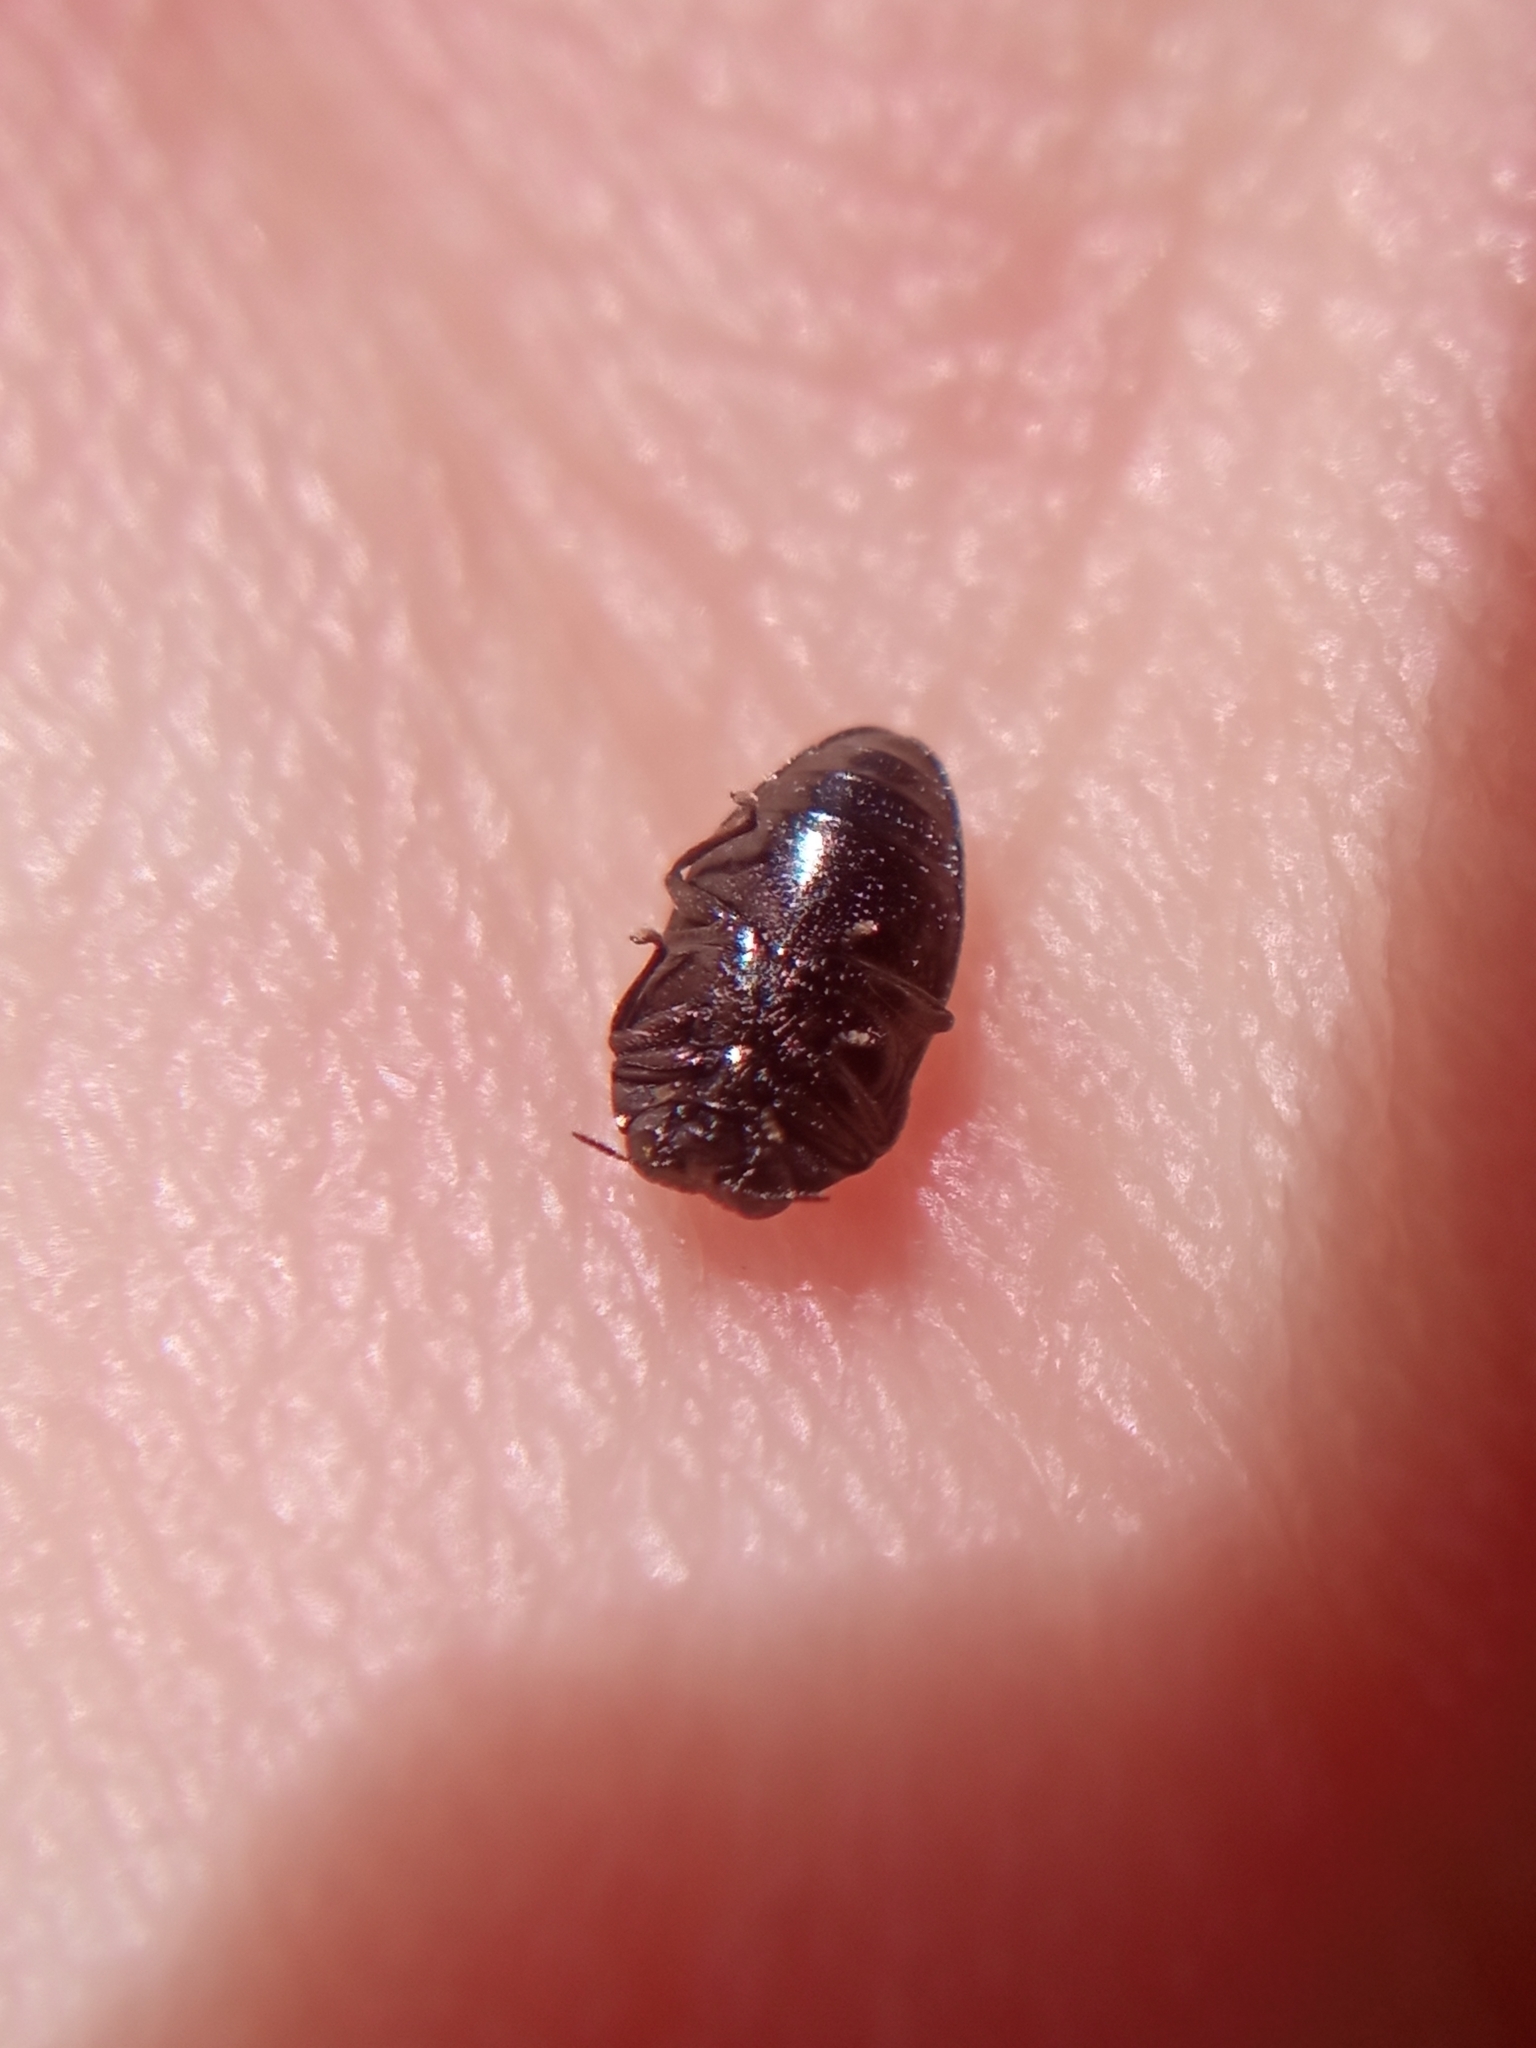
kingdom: Animalia
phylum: Arthropoda
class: Insecta
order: Coleoptera
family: Buprestidae
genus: Trachys
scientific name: Trachys minutus
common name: Metallic wood-boring beetle
